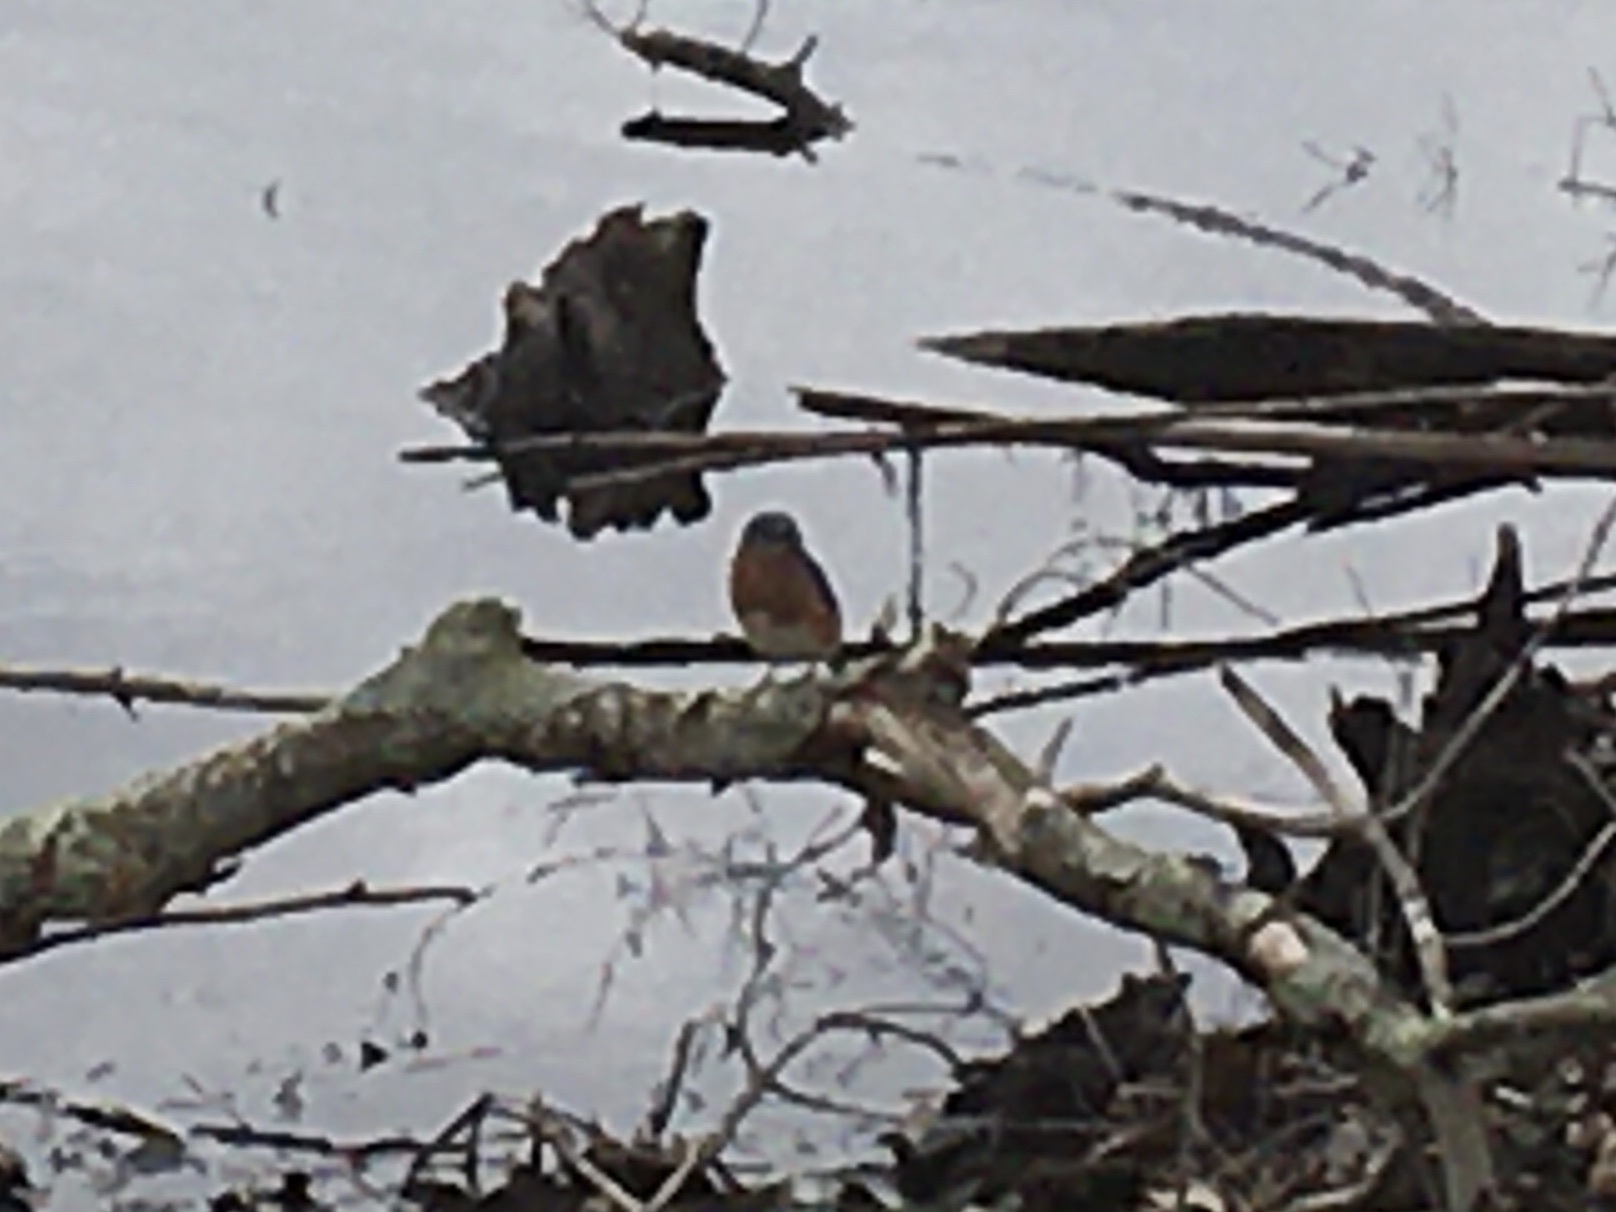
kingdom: Animalia
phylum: Chordata
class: Aves
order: Passeriformes
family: Turdidae
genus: Sialia
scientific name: Sialia sialis
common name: Eastern bluebird
